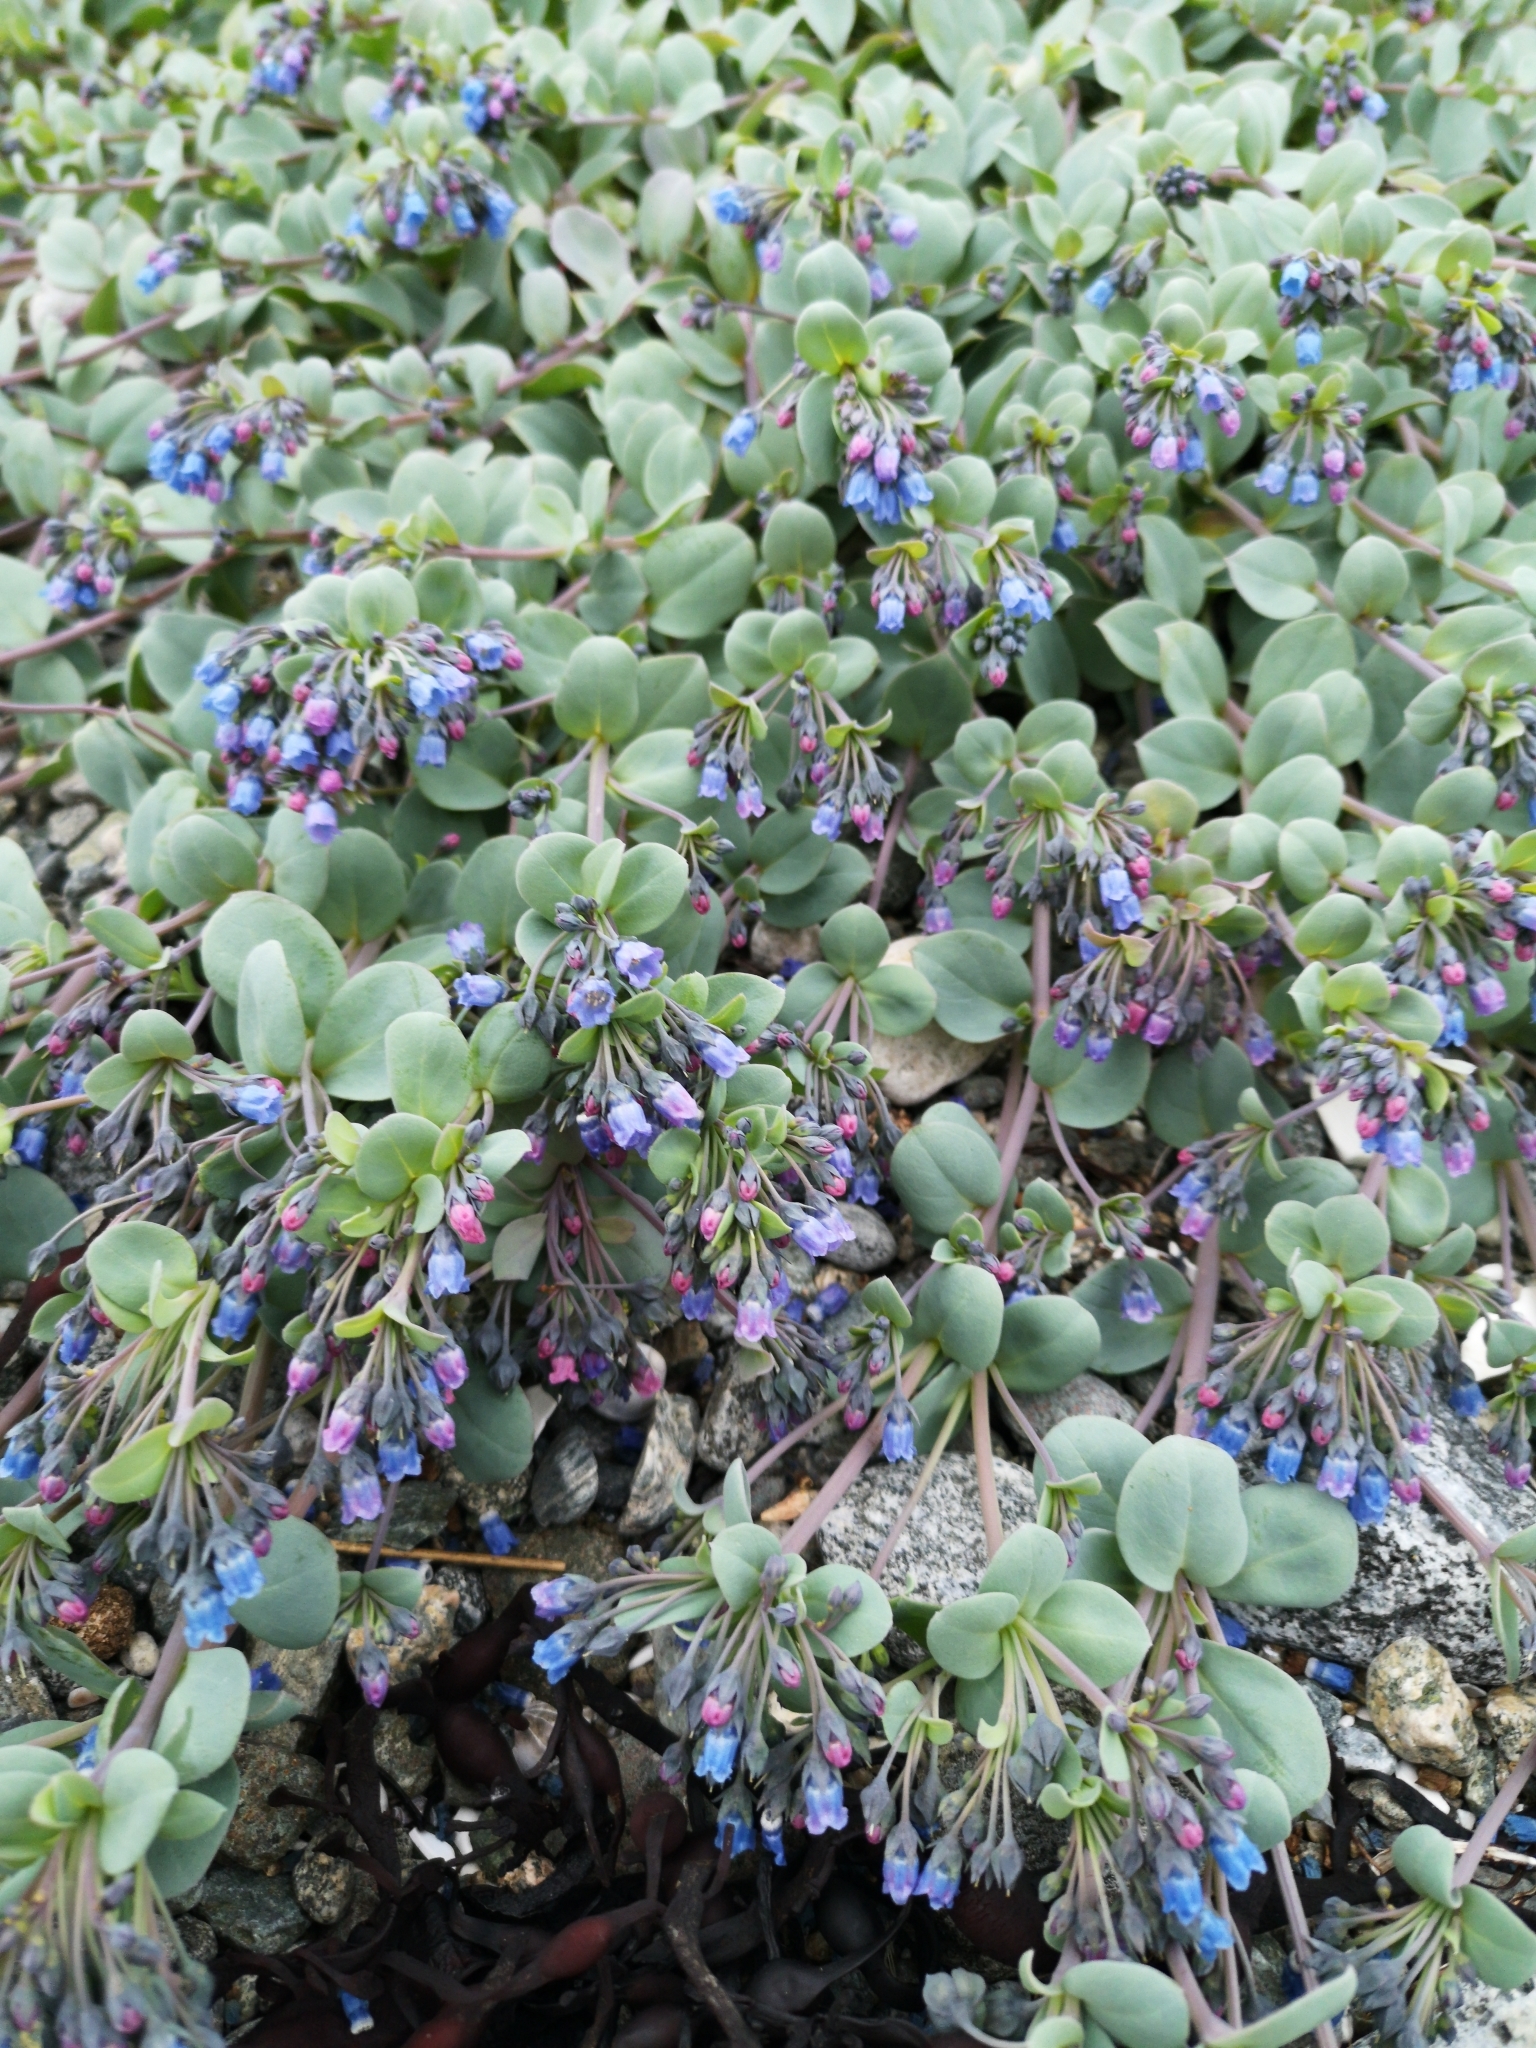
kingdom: Plantae
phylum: Tracheophyta
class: Magnoliopsida
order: Boraginales
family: Boraginaceae
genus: Mertensia
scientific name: Mertensia maritima
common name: Oysterplant
